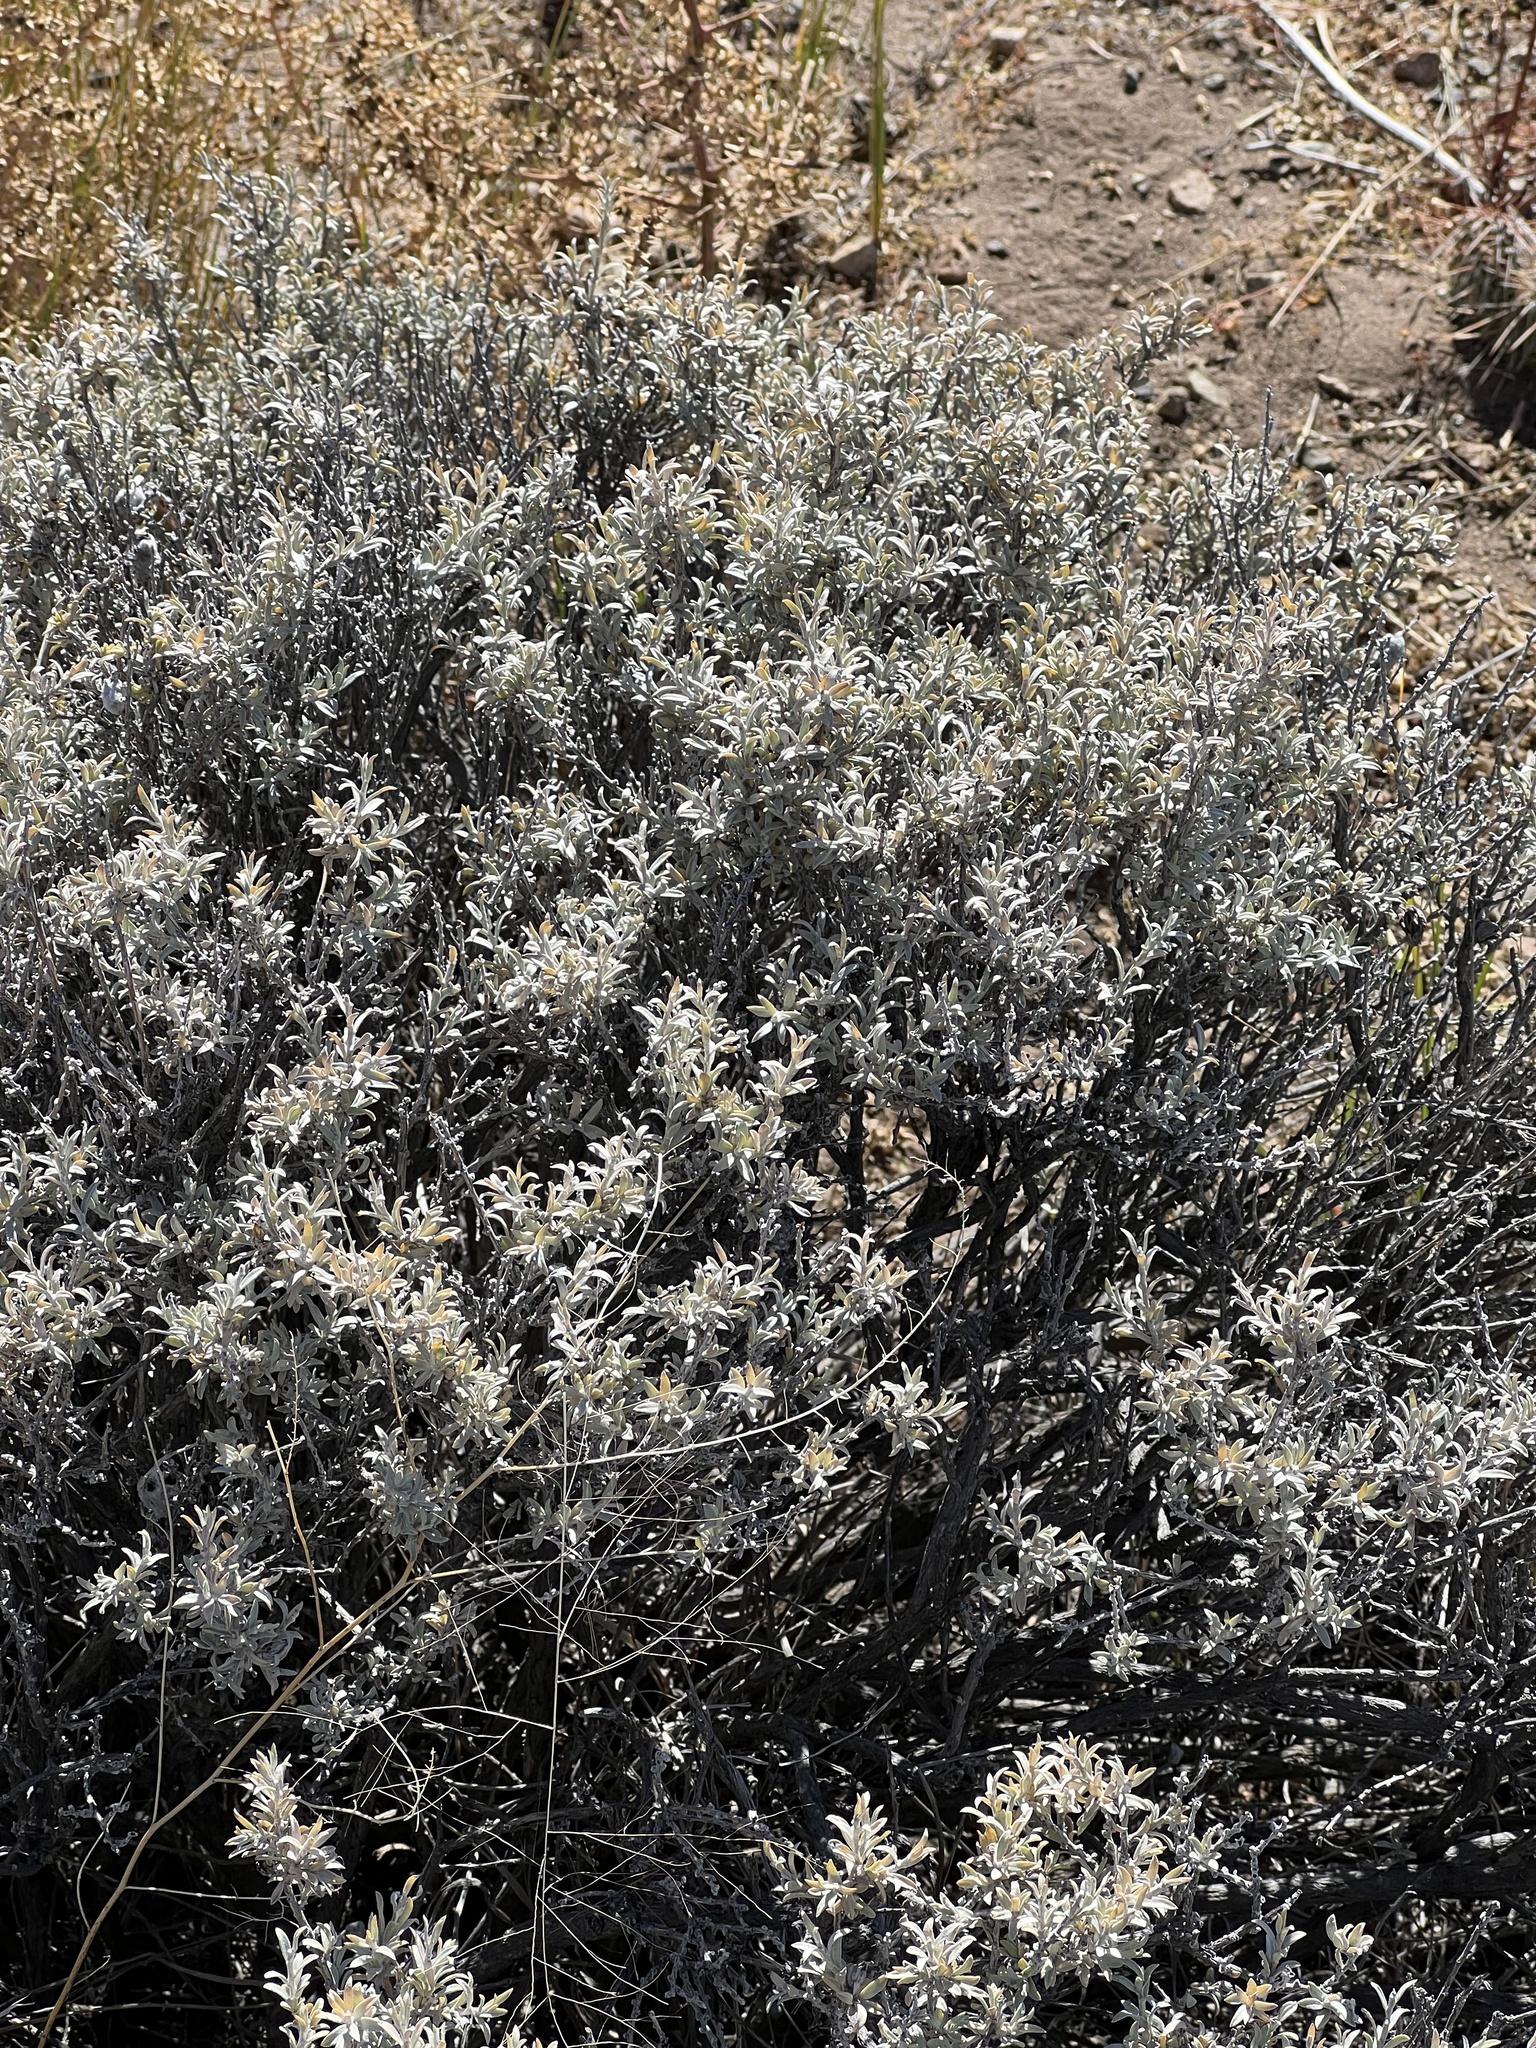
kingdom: Plantae
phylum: Tracheophyta
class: Magnoliopsida
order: Asterales
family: Asteraceae
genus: Tetradymia
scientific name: Tetradymia canescens
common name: Spineless horsebrush
